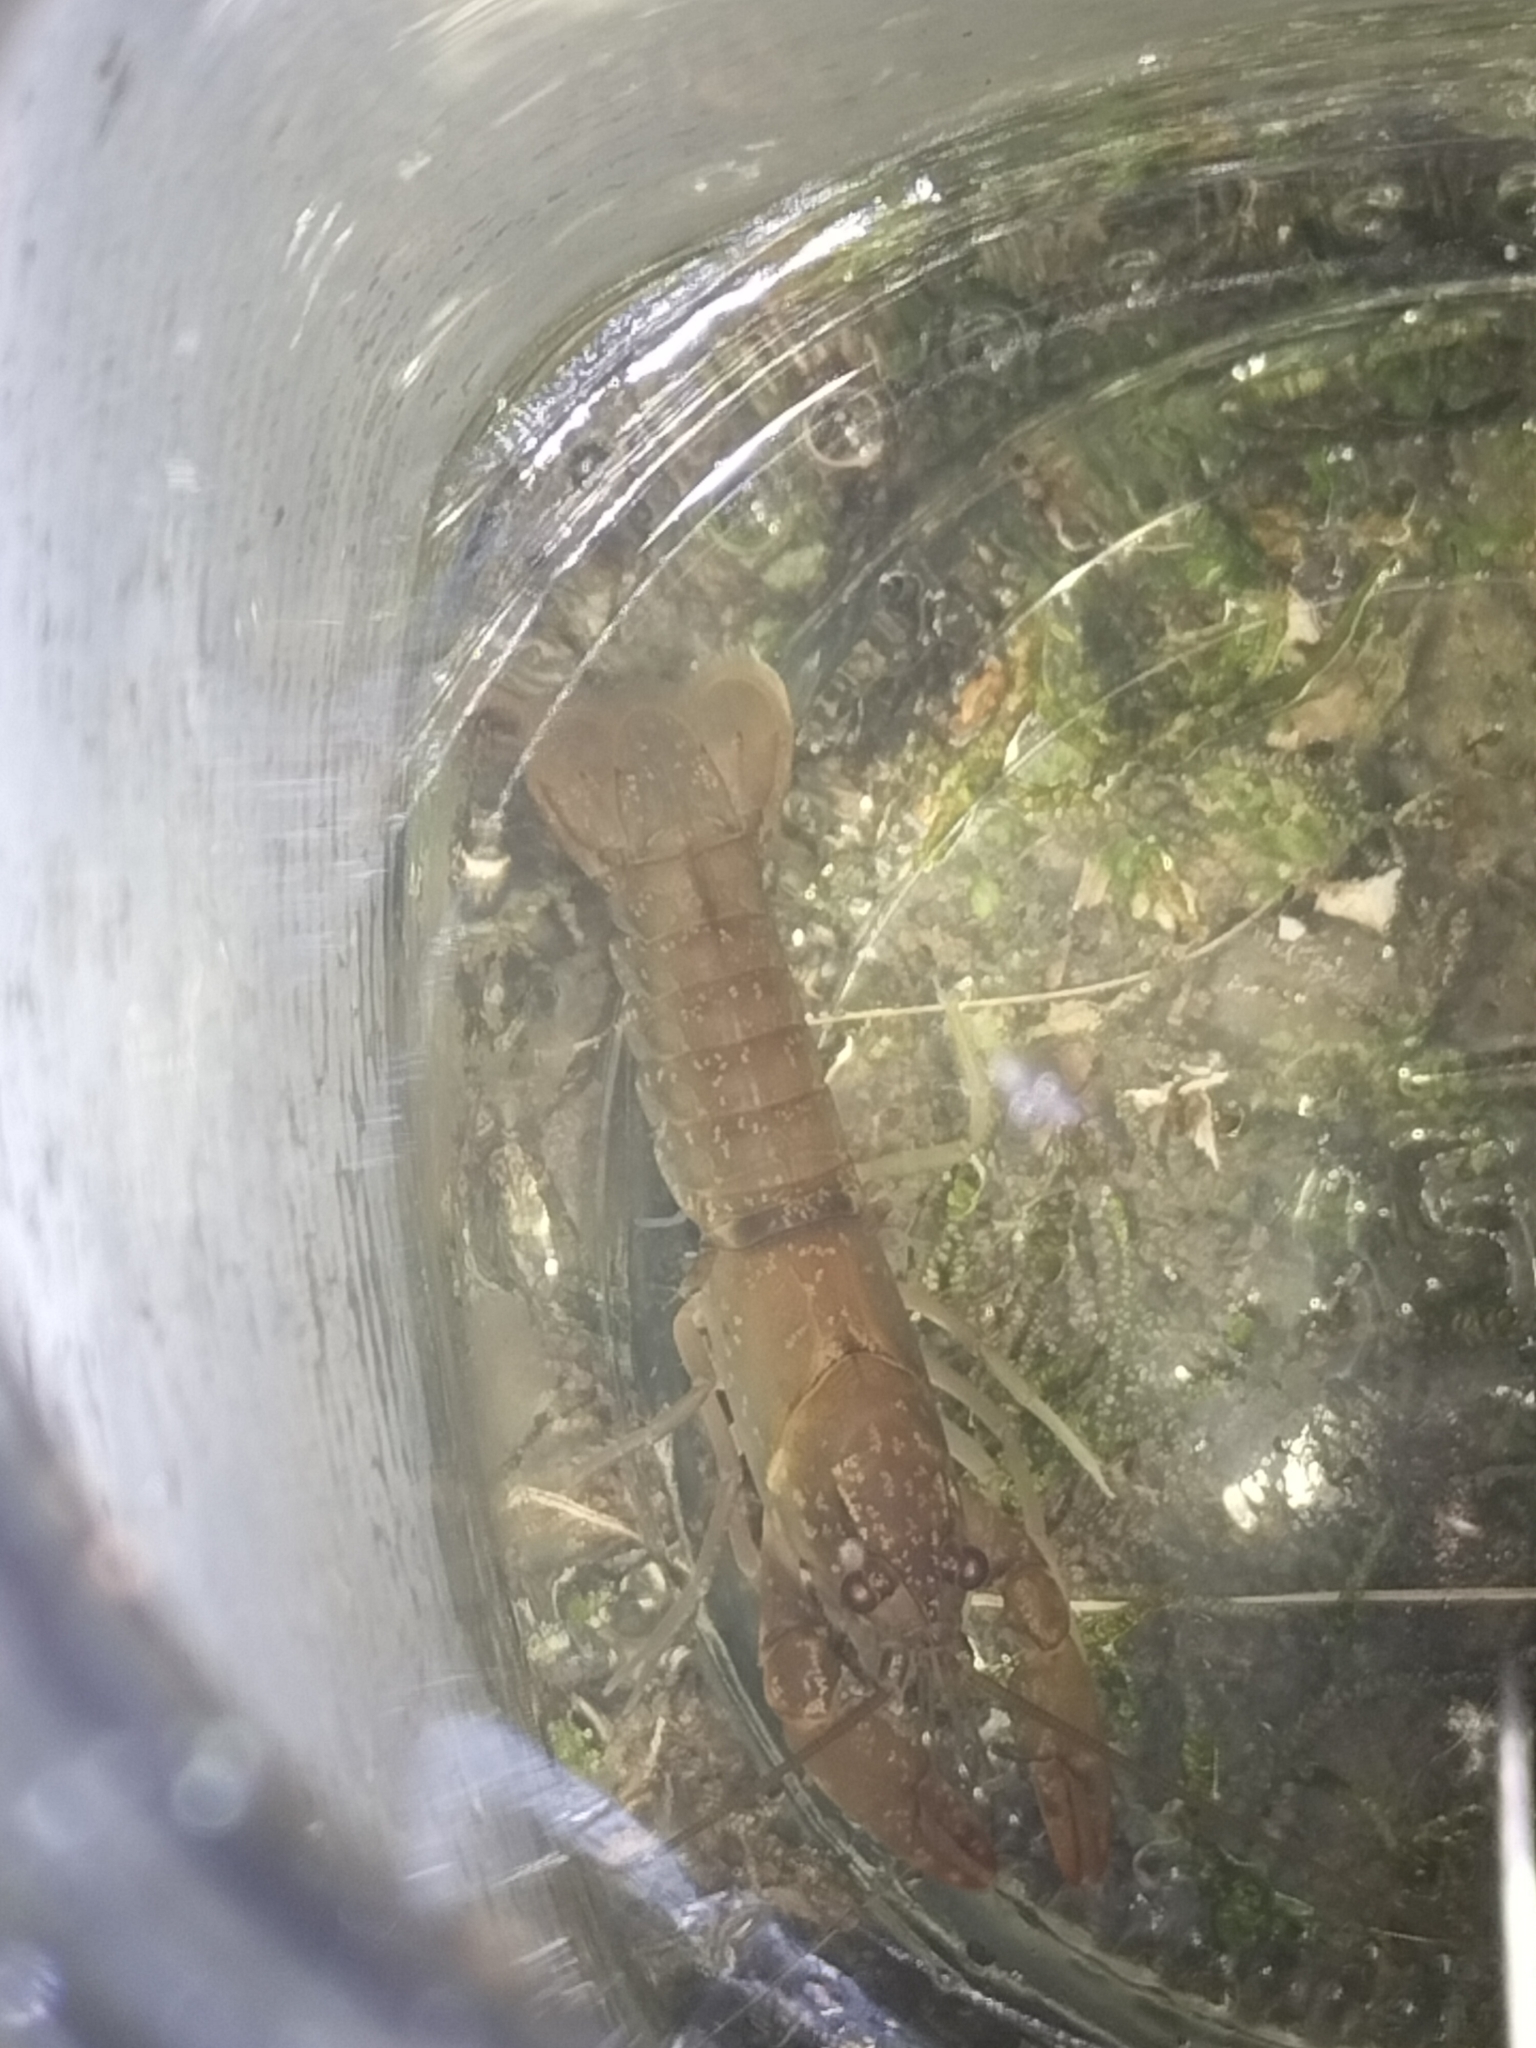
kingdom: Animalia
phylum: Arthropoda
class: Malacostraca
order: Decapoda
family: Parastacidae
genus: Cherax
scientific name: Cherax cairnsensis
